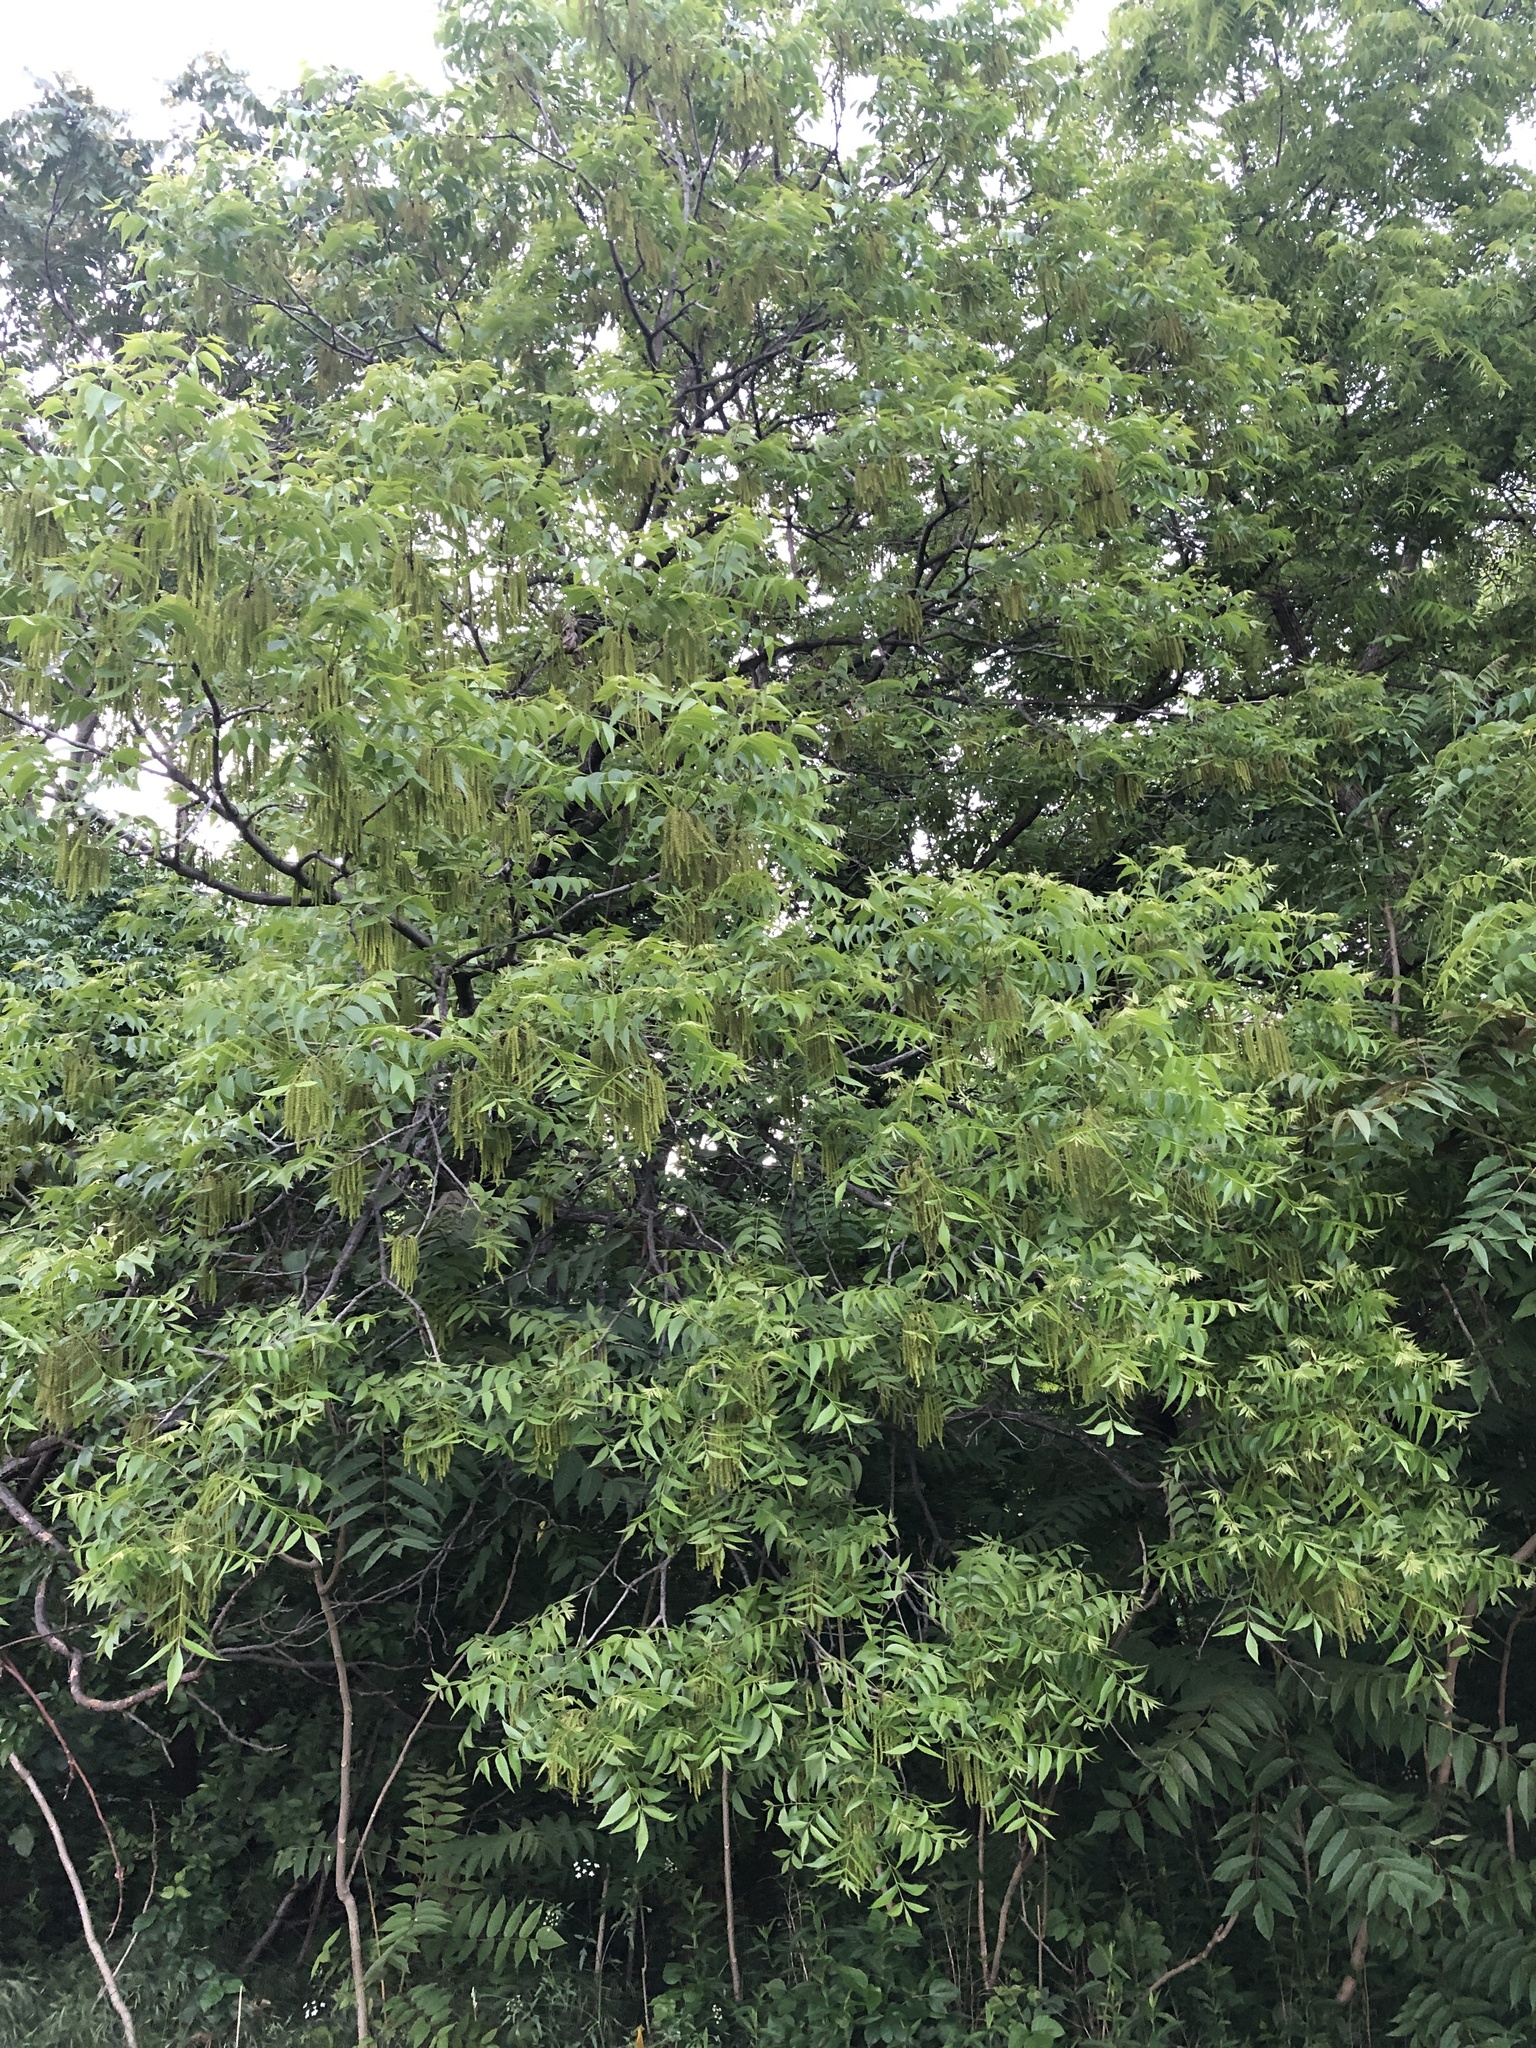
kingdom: Plantae
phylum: Tracheophyta
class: Magnoliopsida
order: Fagales
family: Juglandaceae
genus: Carya
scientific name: Carya illinoinensis
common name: Pecan
